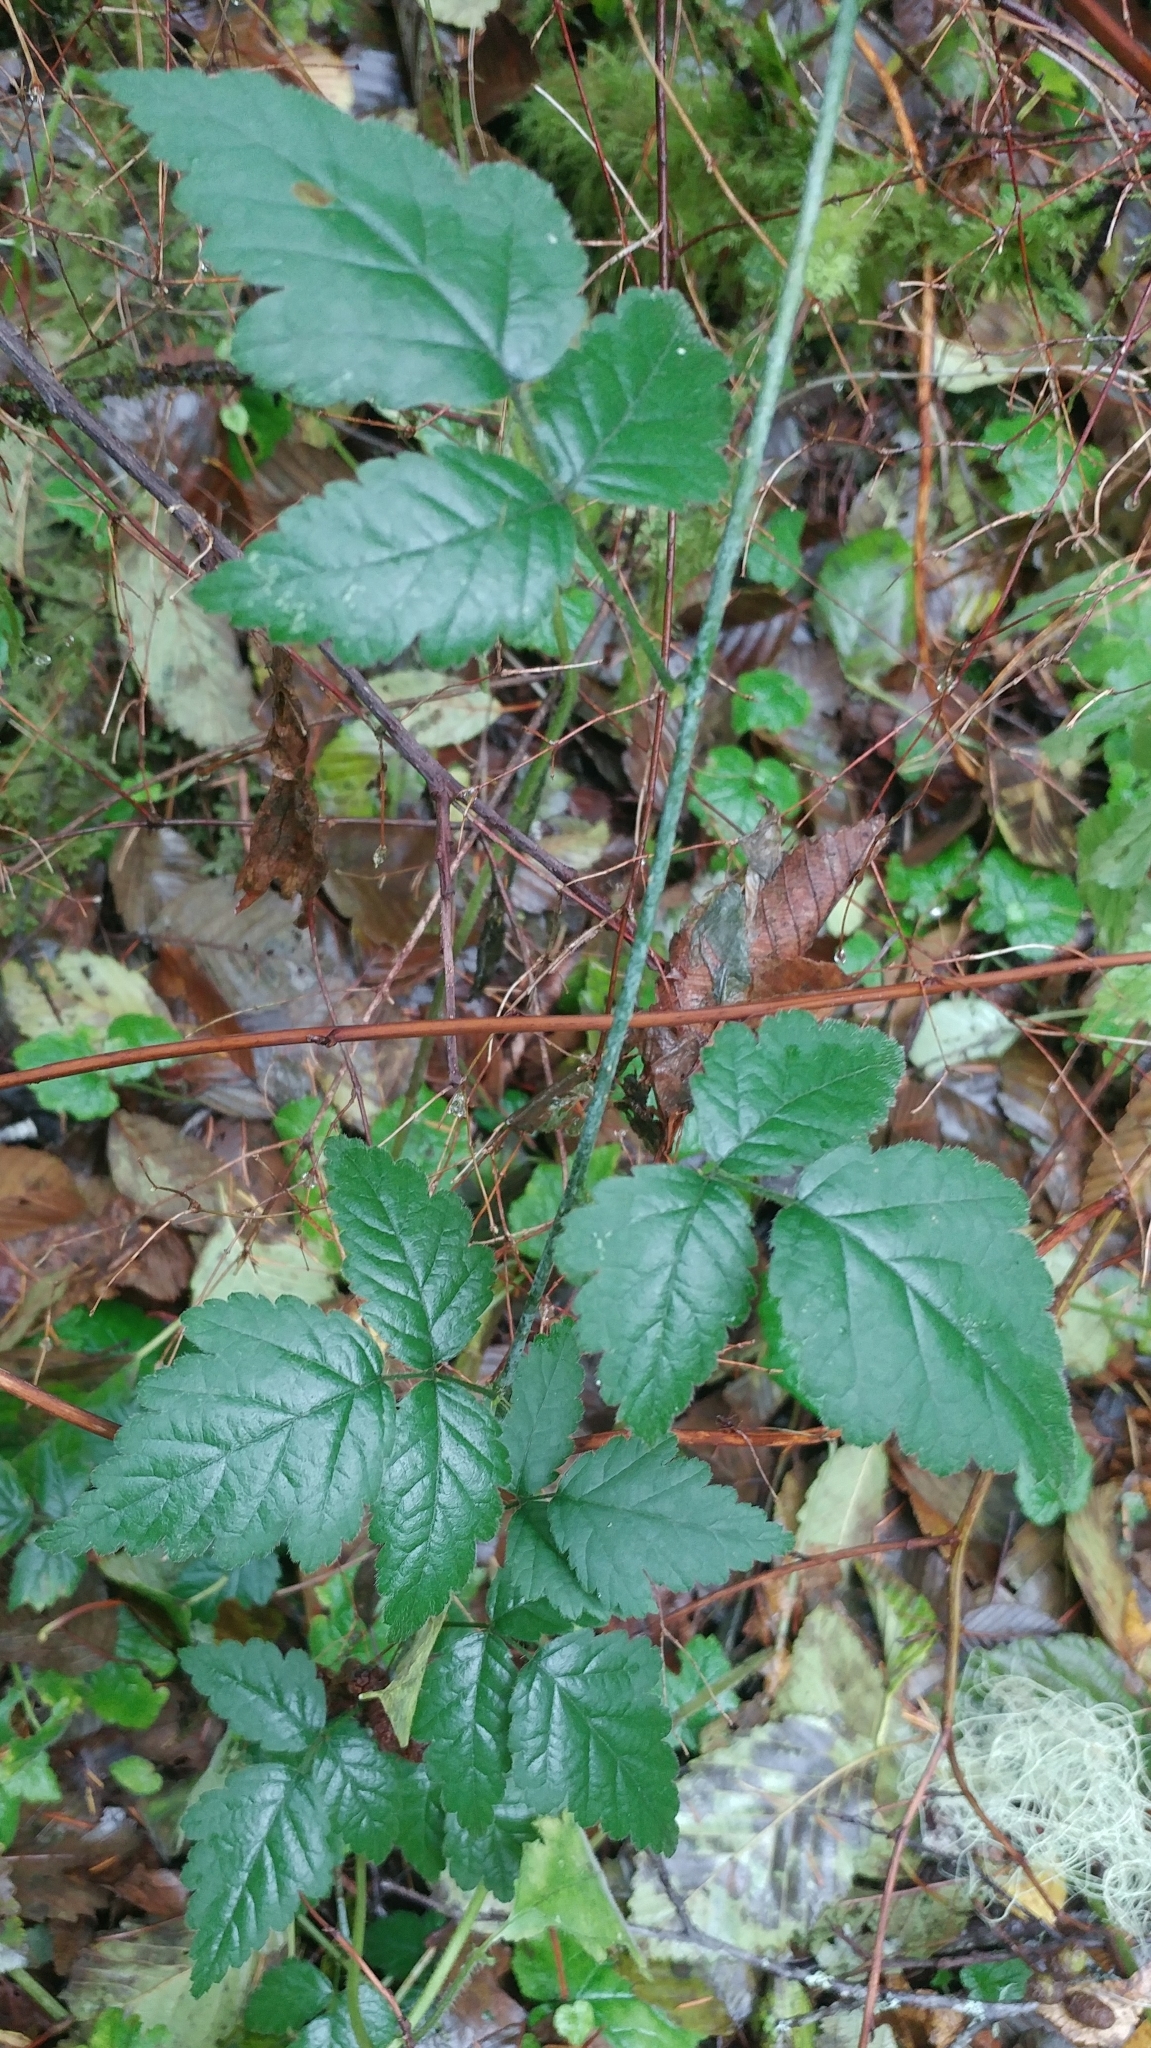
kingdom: Plantae
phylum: Tracheophyta
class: Magnoliopsida
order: Rosales
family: Rosaceae
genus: Rubus
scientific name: Rubus ursinus
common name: Pacific blackberry
